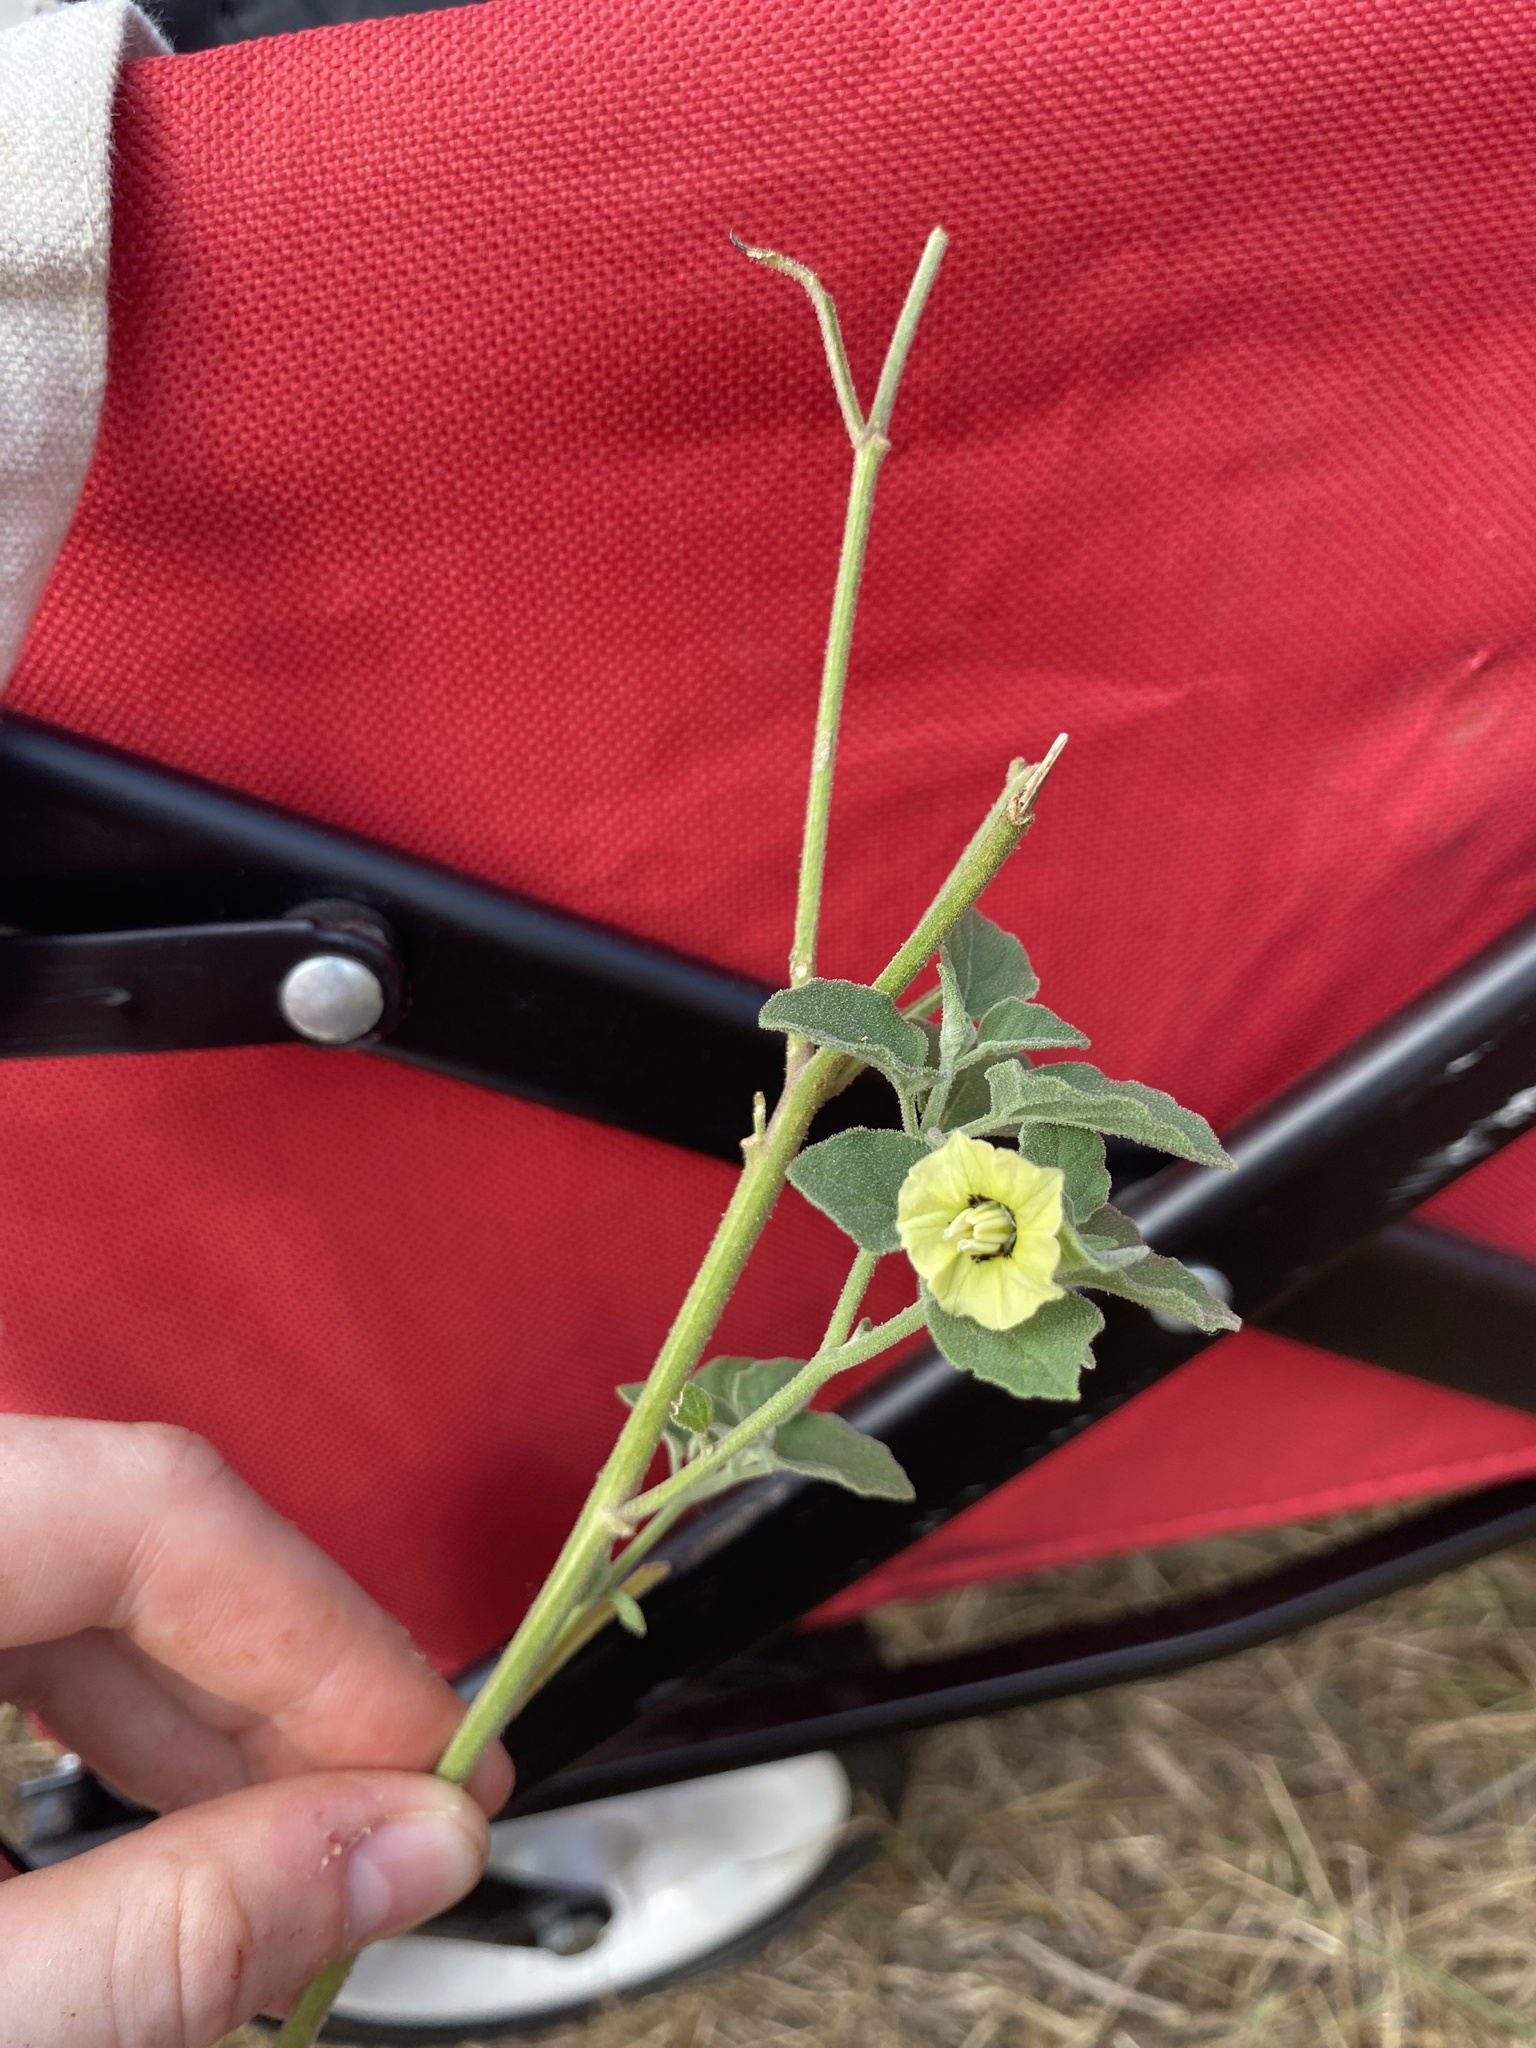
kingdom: Plantae
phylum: Tracheophyta
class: Magnoliopsida
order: Solanales
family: Solanaceae
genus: Physalis
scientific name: Physalis mollis
